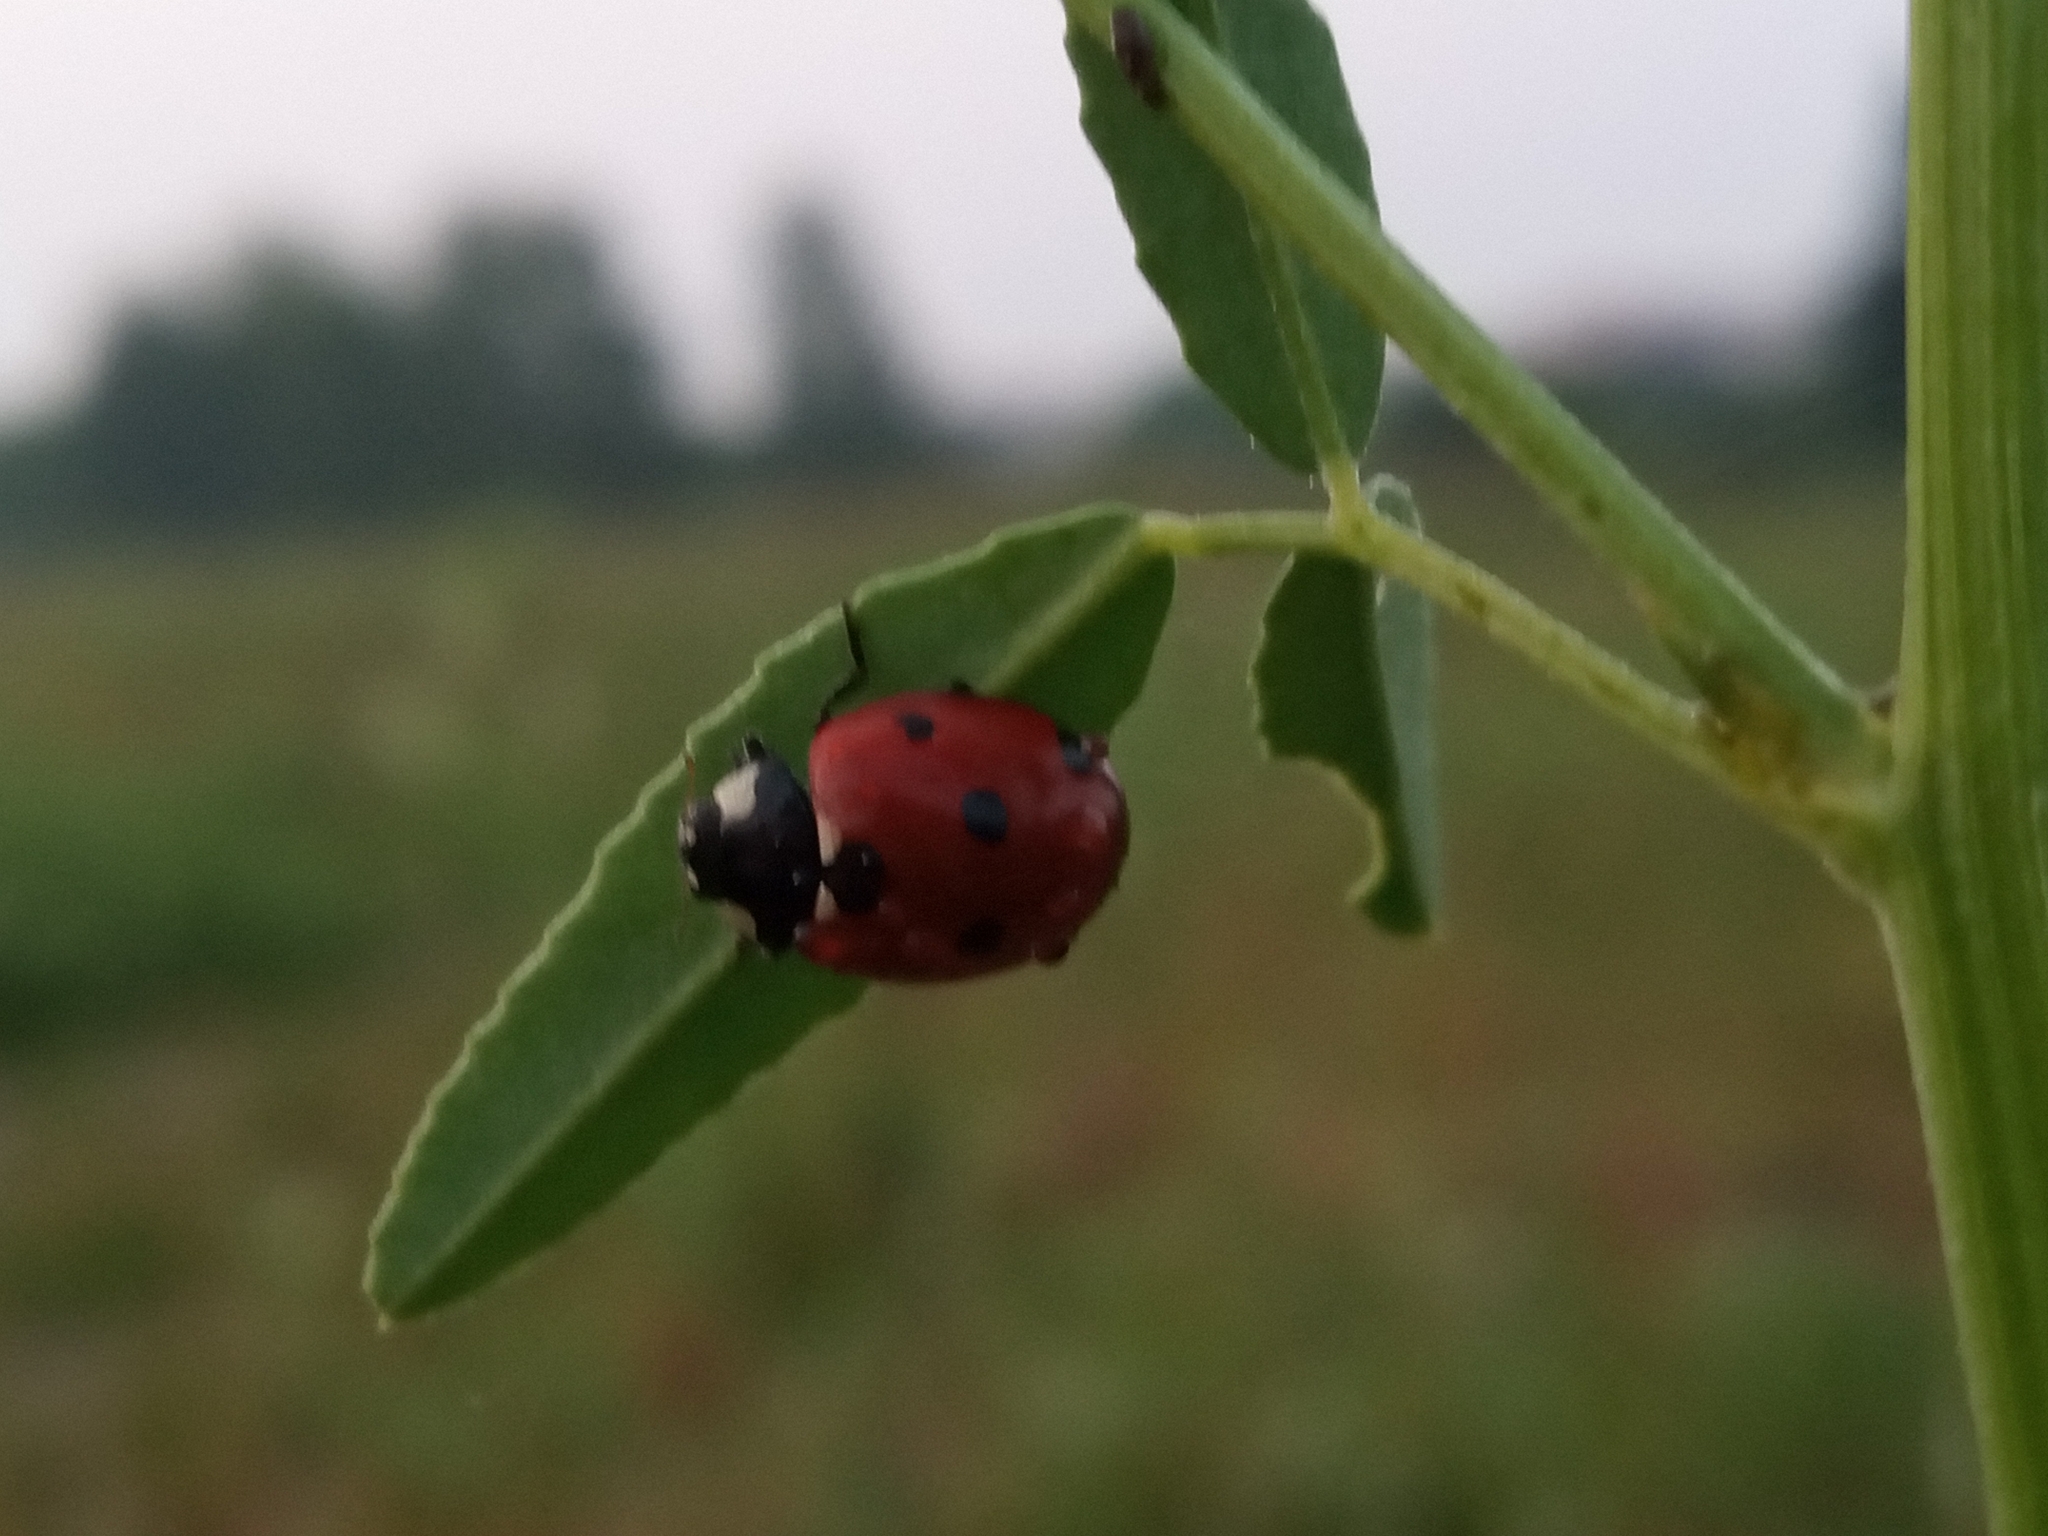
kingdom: Animalia
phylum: Arthropoda
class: Insecta
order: Coleoptera
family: Coccinellidae
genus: Coccinella
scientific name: Coccinella septempunctata
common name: Sevenspotted lady beetle
